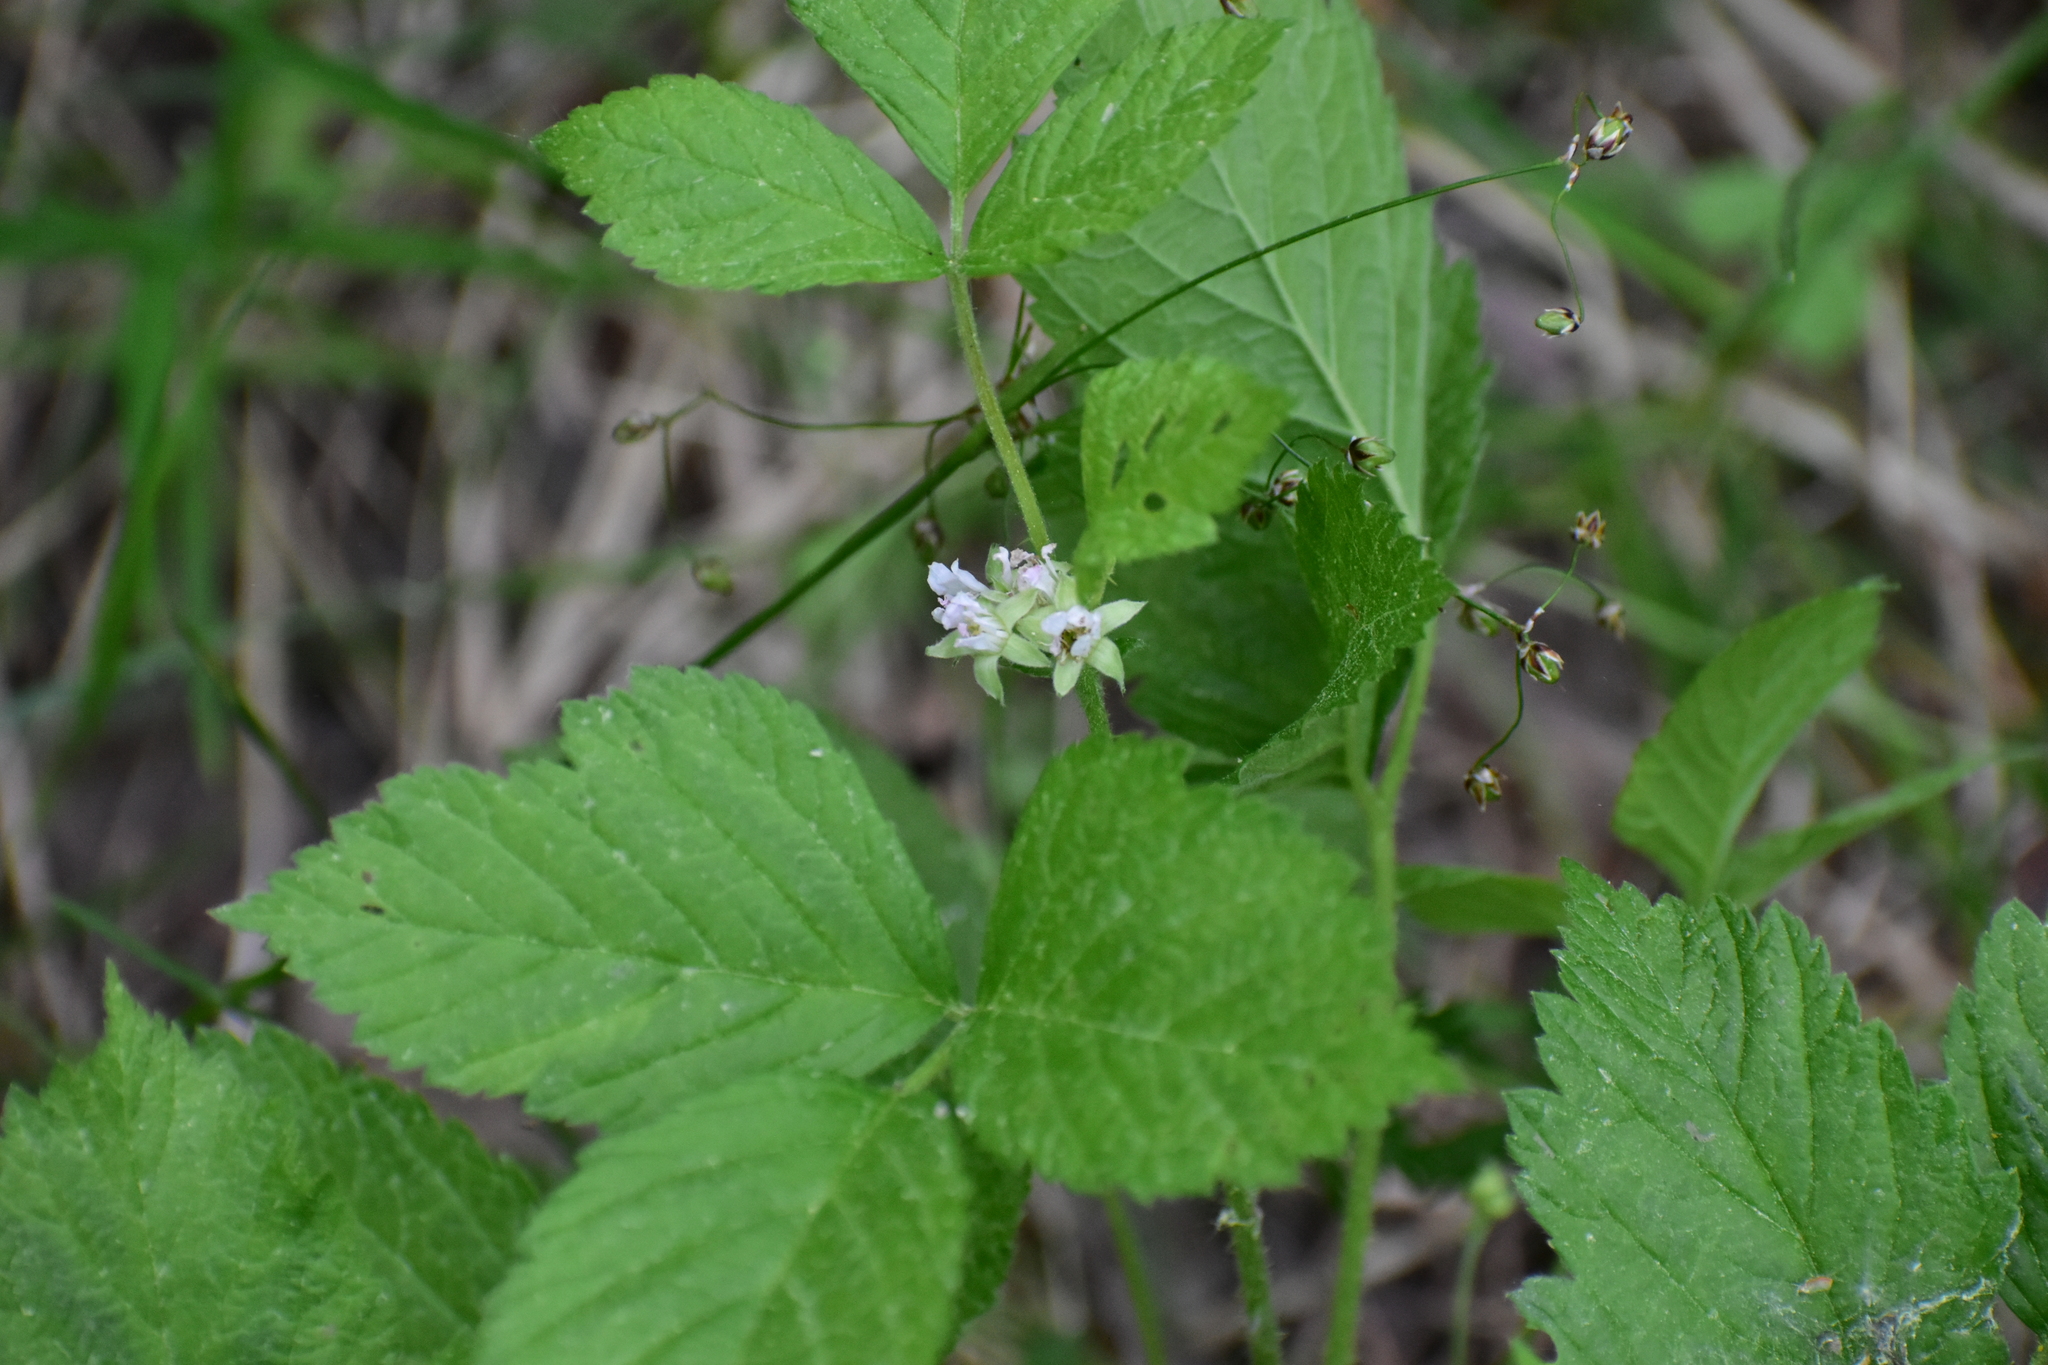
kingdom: Plantae
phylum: Tracheophyta
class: Magnoliopsida
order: Rosales
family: Rosaceae
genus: Rubus
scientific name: Rubus saxatilis
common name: Stone bramble
